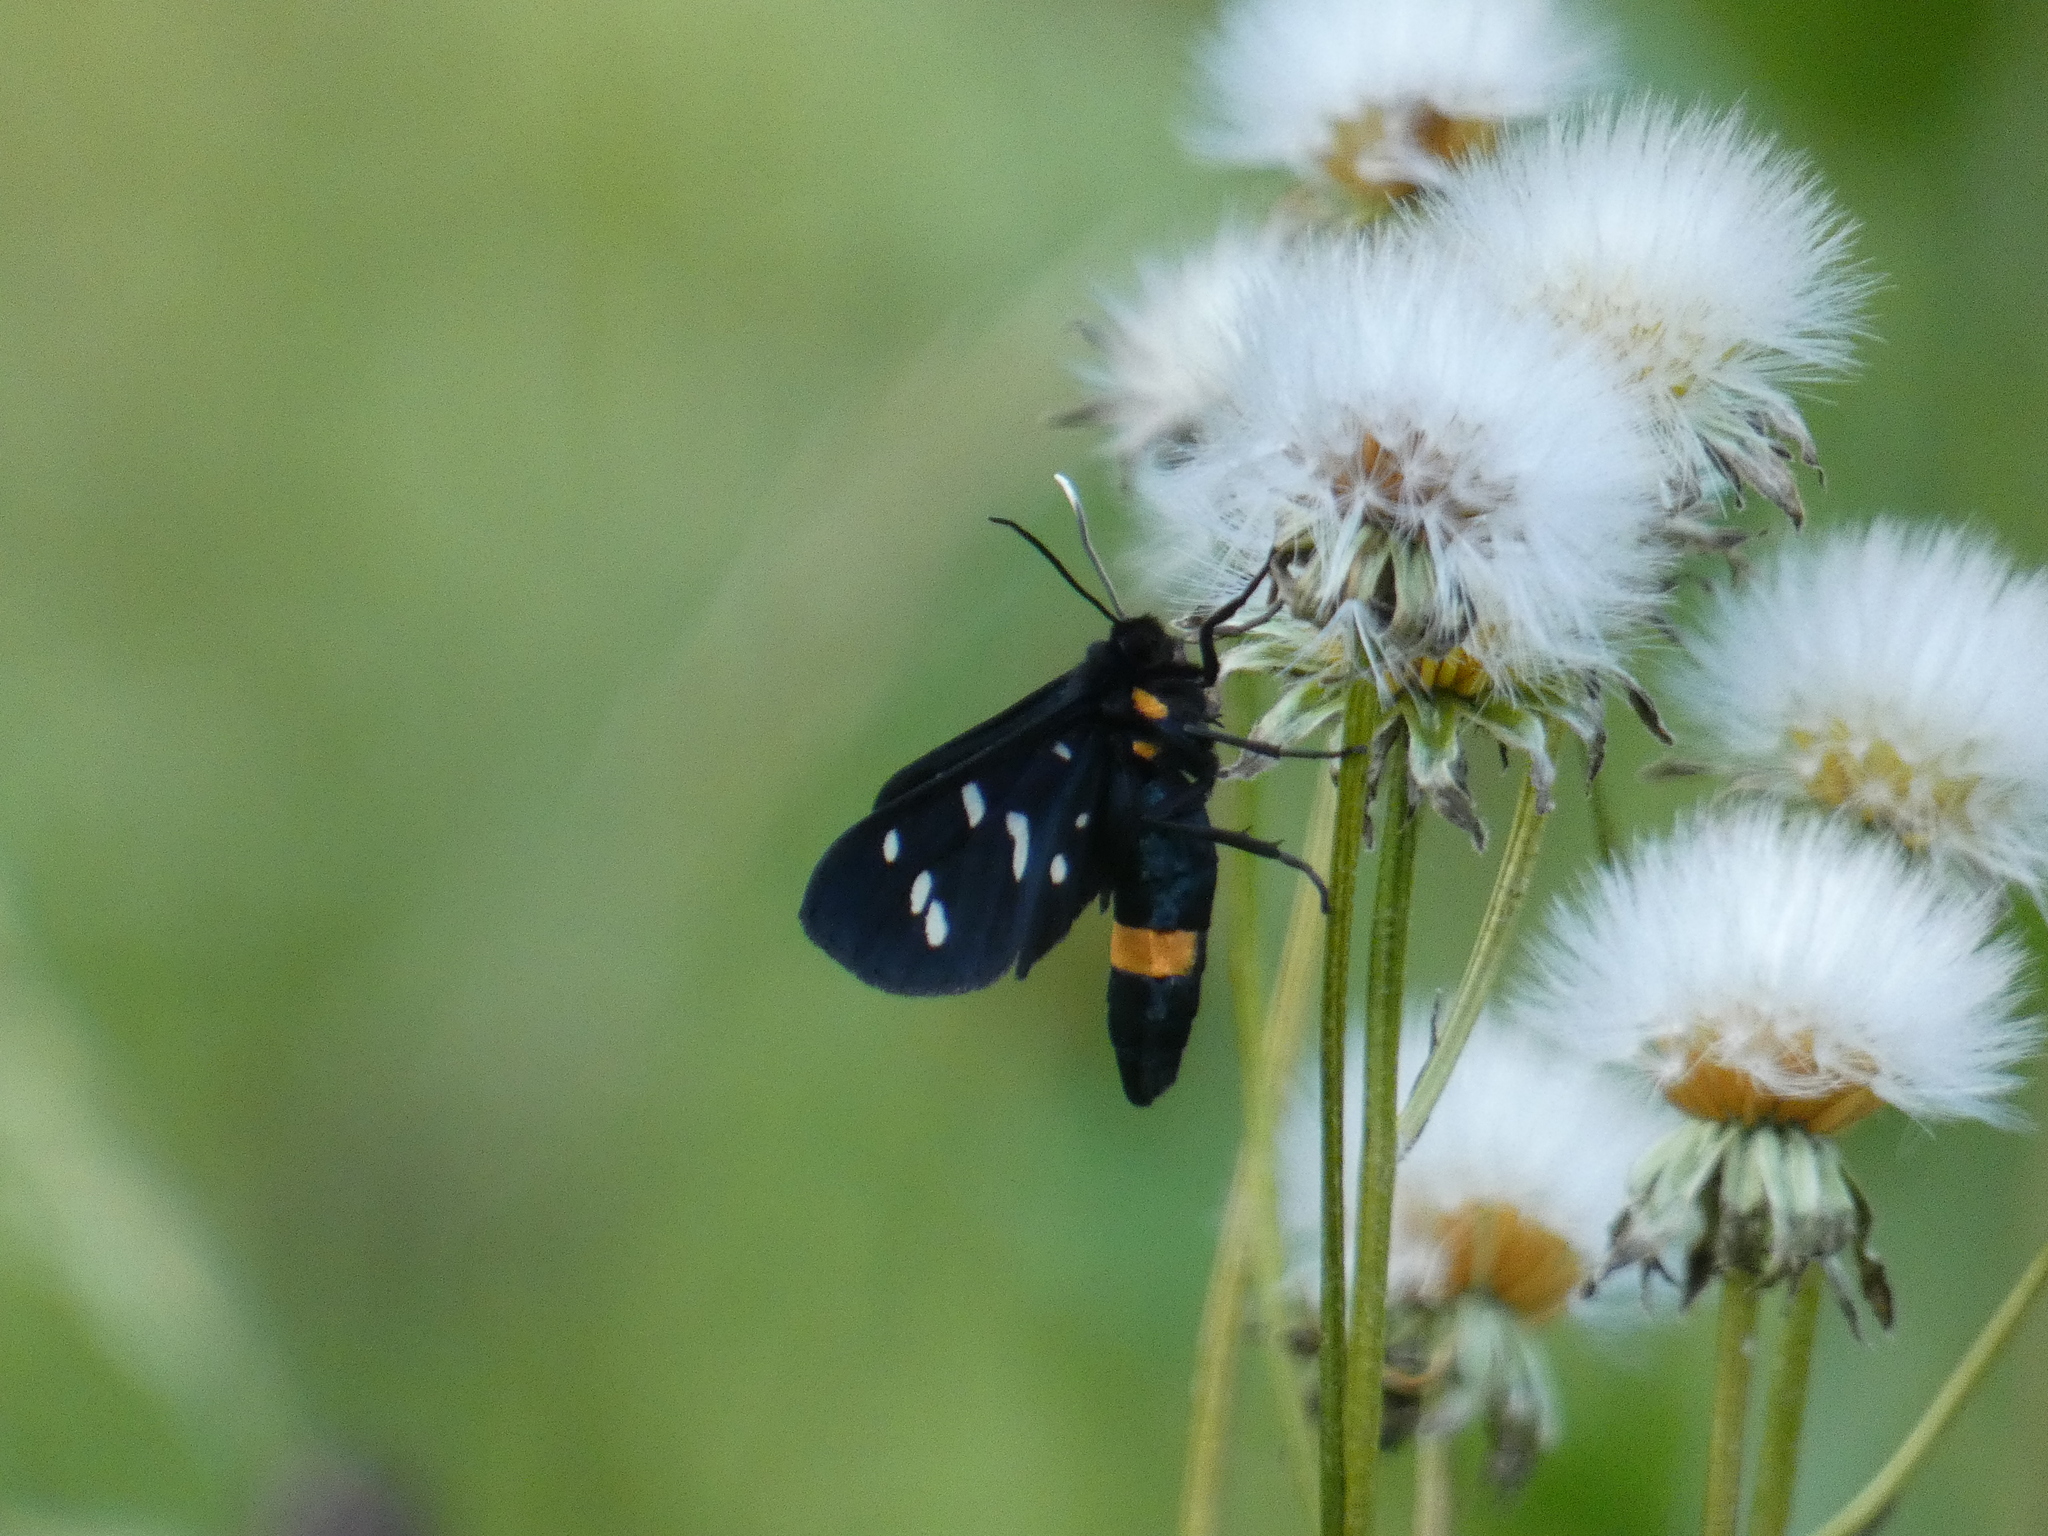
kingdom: Animalia
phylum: Arthropoda
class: Insecta
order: Lepidoptera
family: Erebidae
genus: Amata
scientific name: Amata phegea
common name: Nine-spotted
